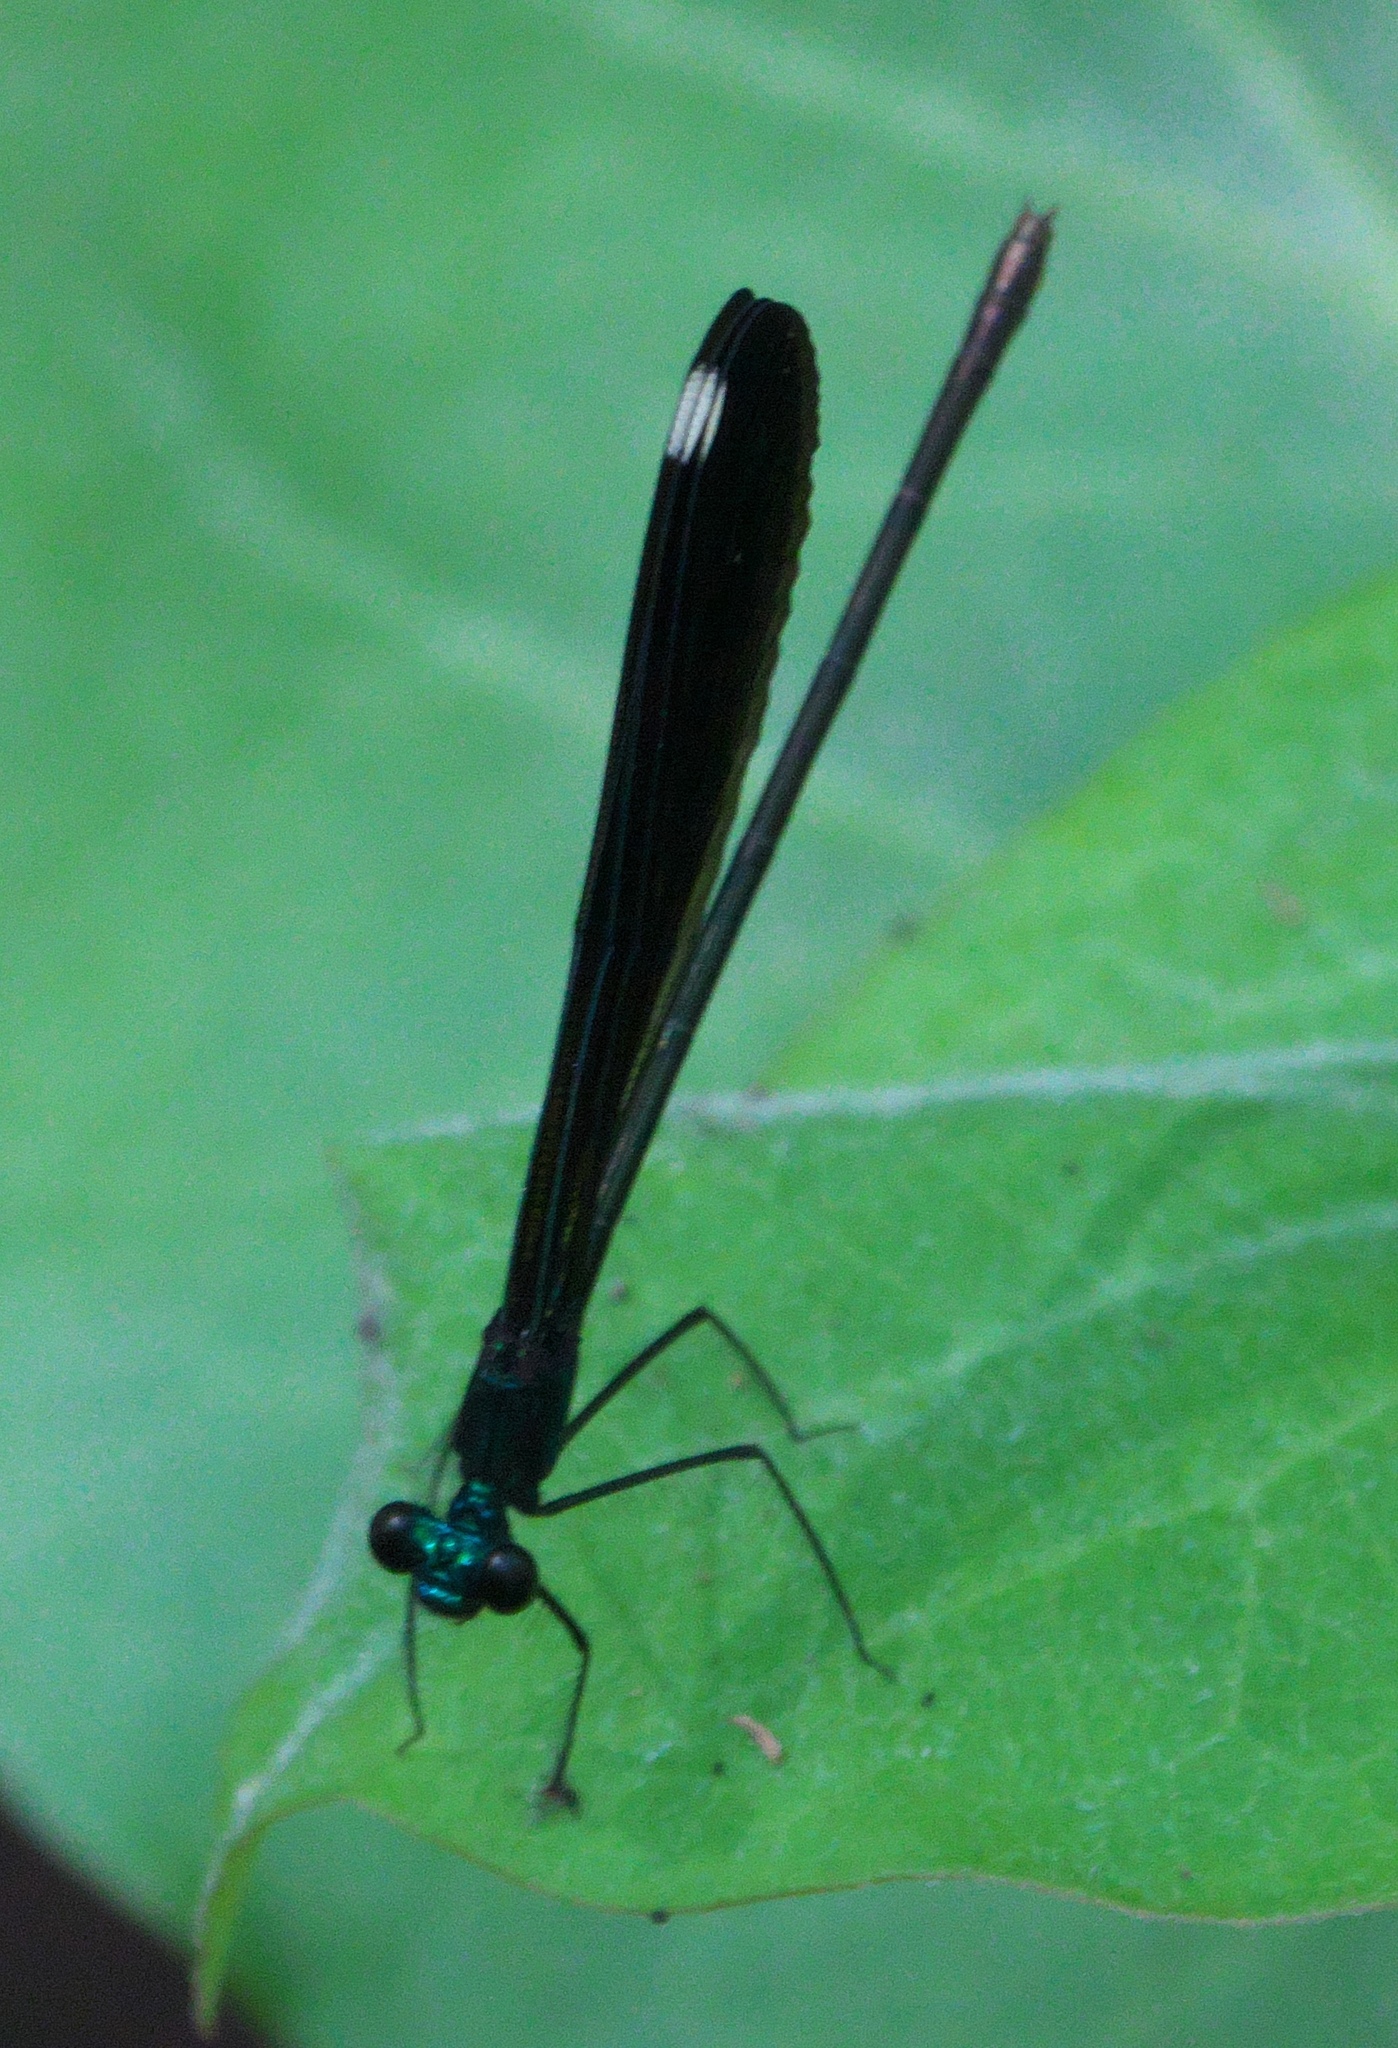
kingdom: Animalia
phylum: Arthropoda
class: Insecta
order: Odonata
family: Calopterygidae
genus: Calopteryx
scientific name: Calopteryx maculata
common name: Ebony jewelwing
